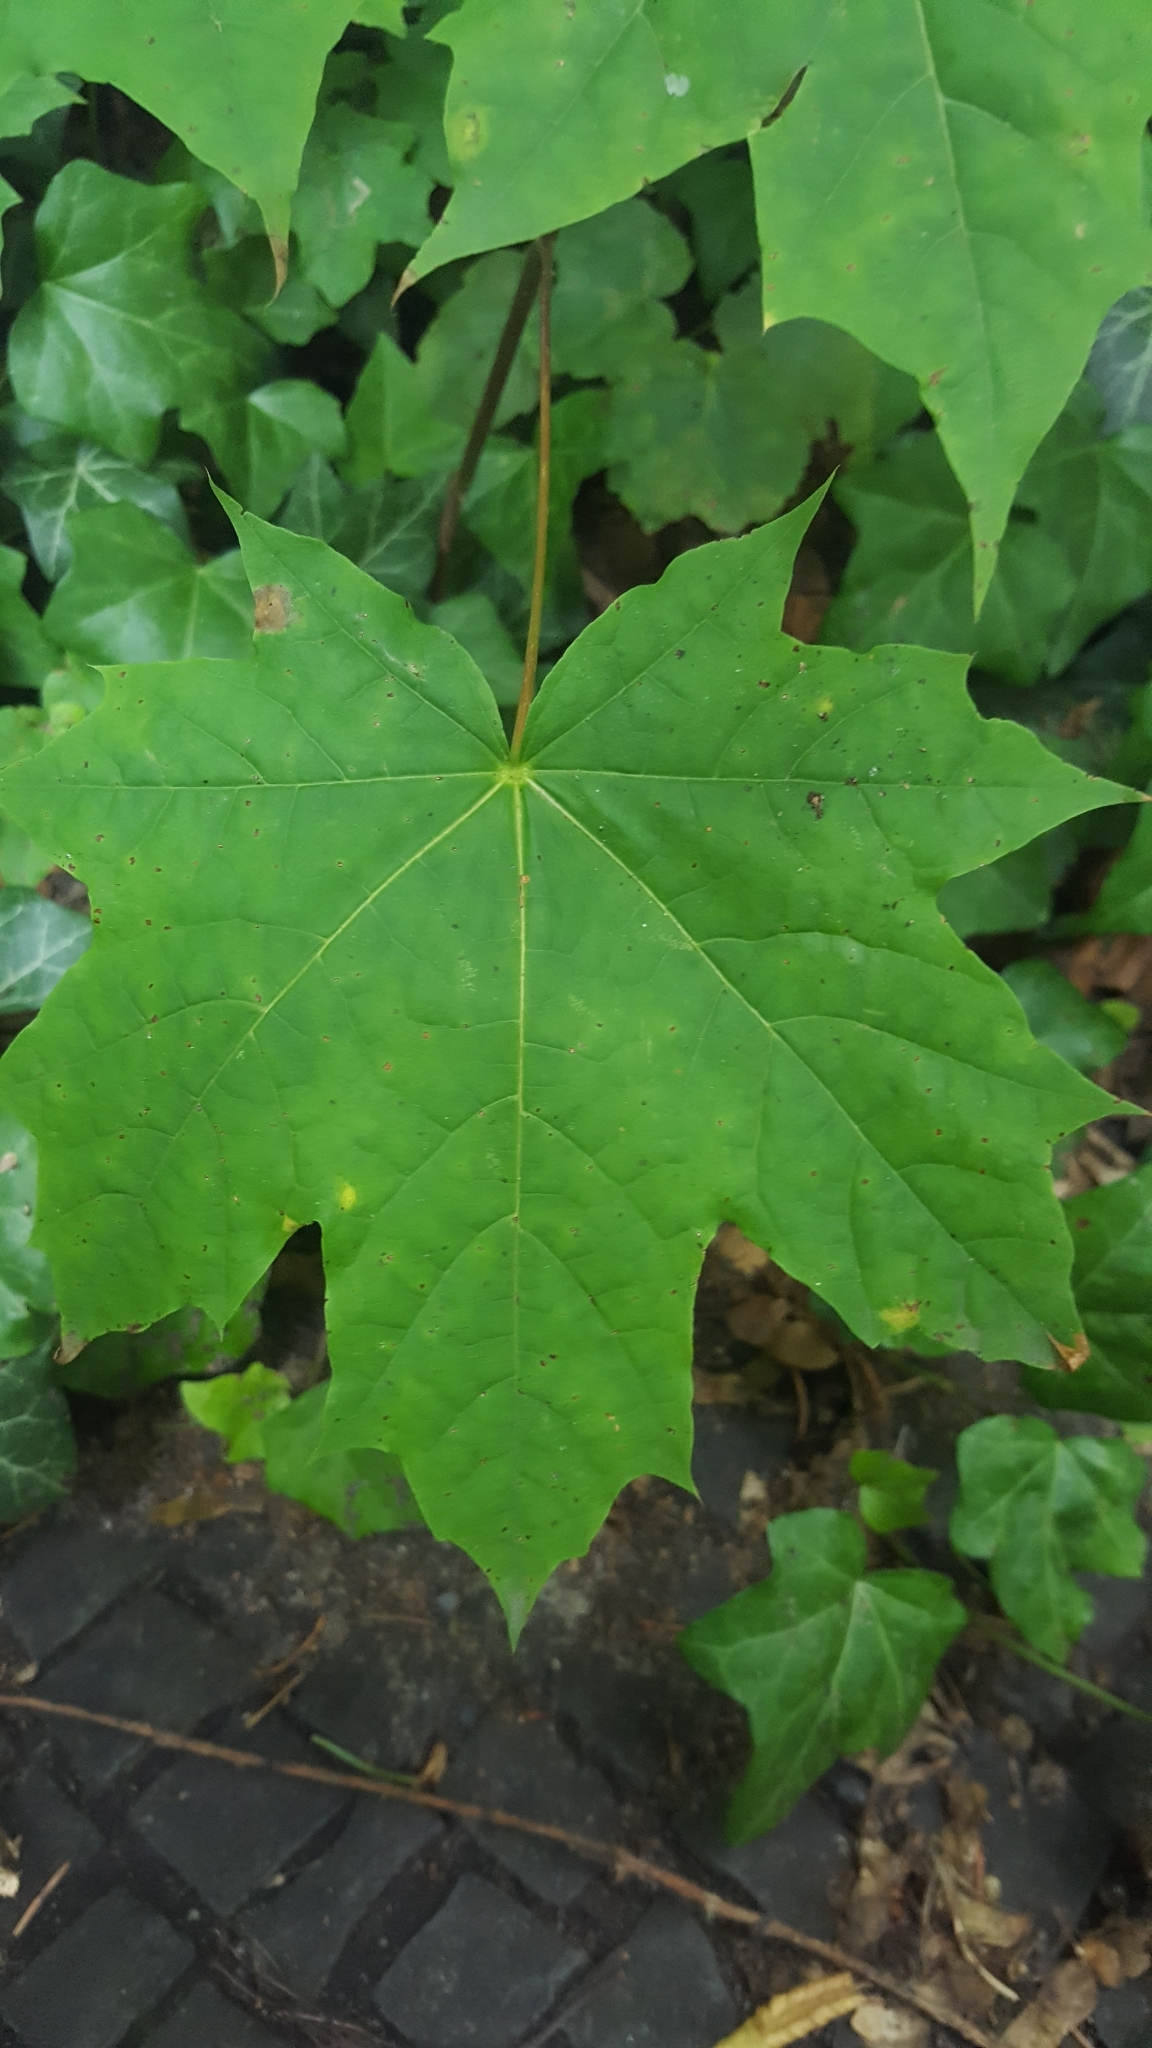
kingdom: Plantae
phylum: Tracheophyta
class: Magnoliopsida
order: Sapindales
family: Sapindaceae
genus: Acer
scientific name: Acer platanoides
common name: Norway maple
